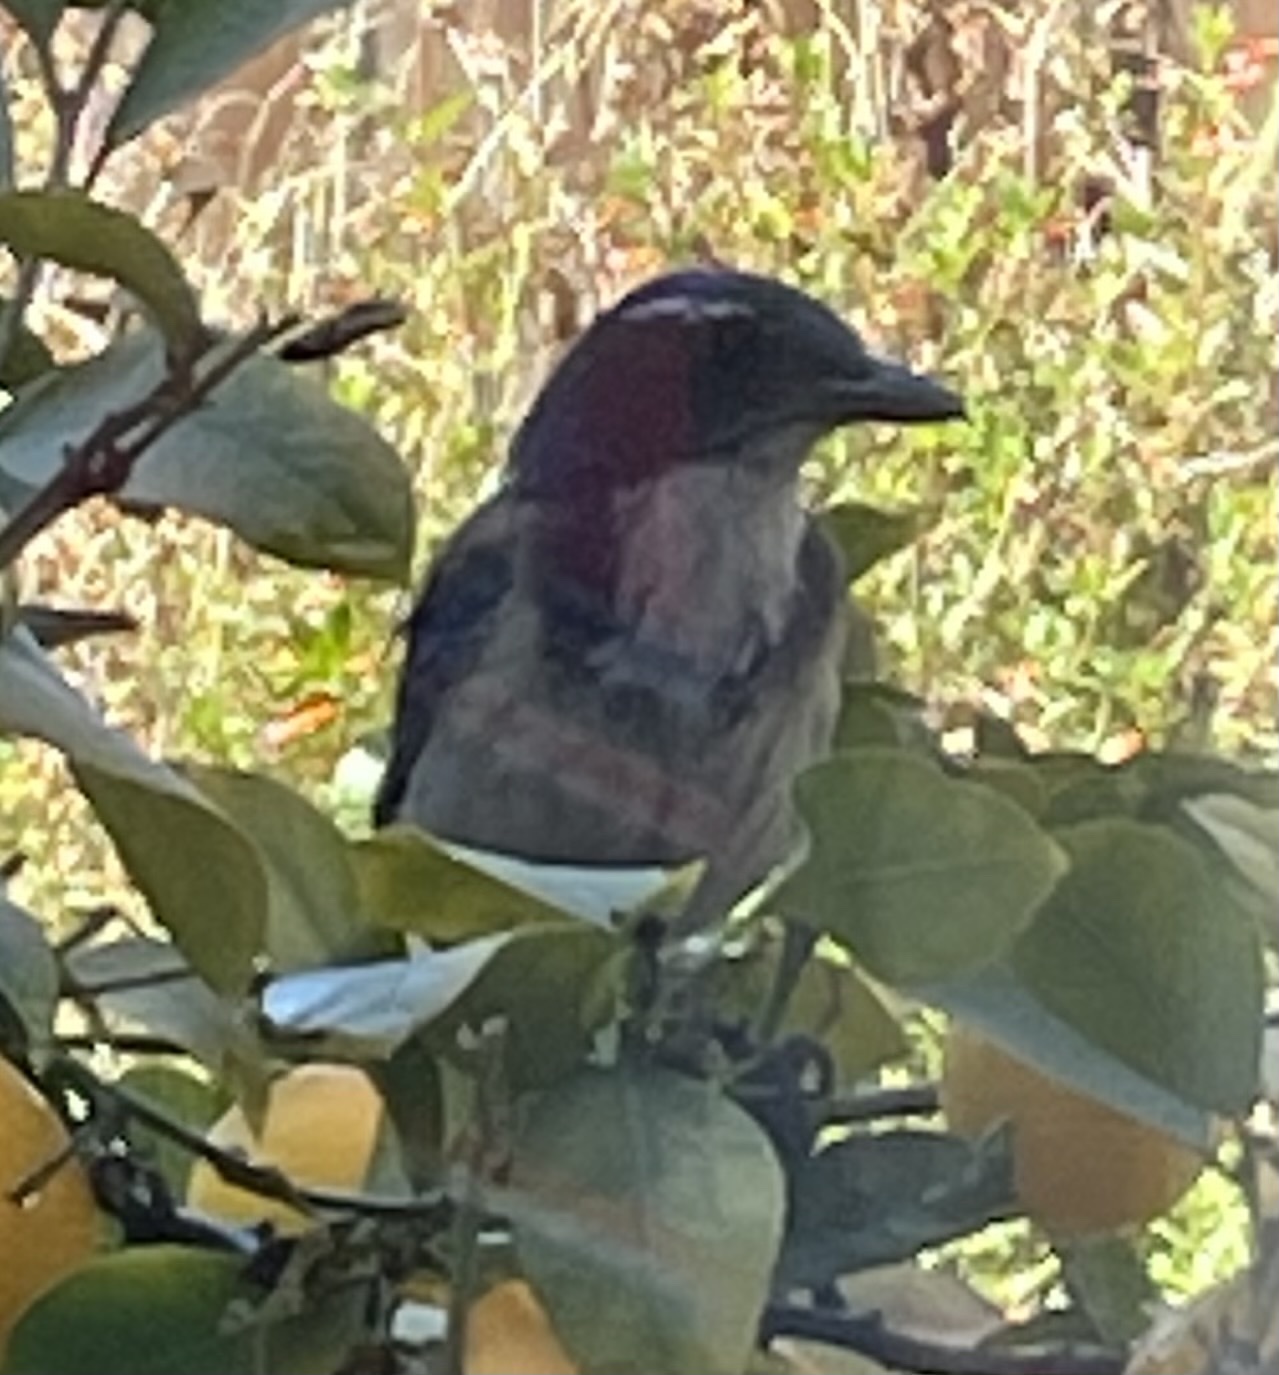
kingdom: Animalia
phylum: Chordata
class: Aves
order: Passeriformes
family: Corvidae
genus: Aphelocoma
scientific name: Aphelocoma californica
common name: California scrub-jay
